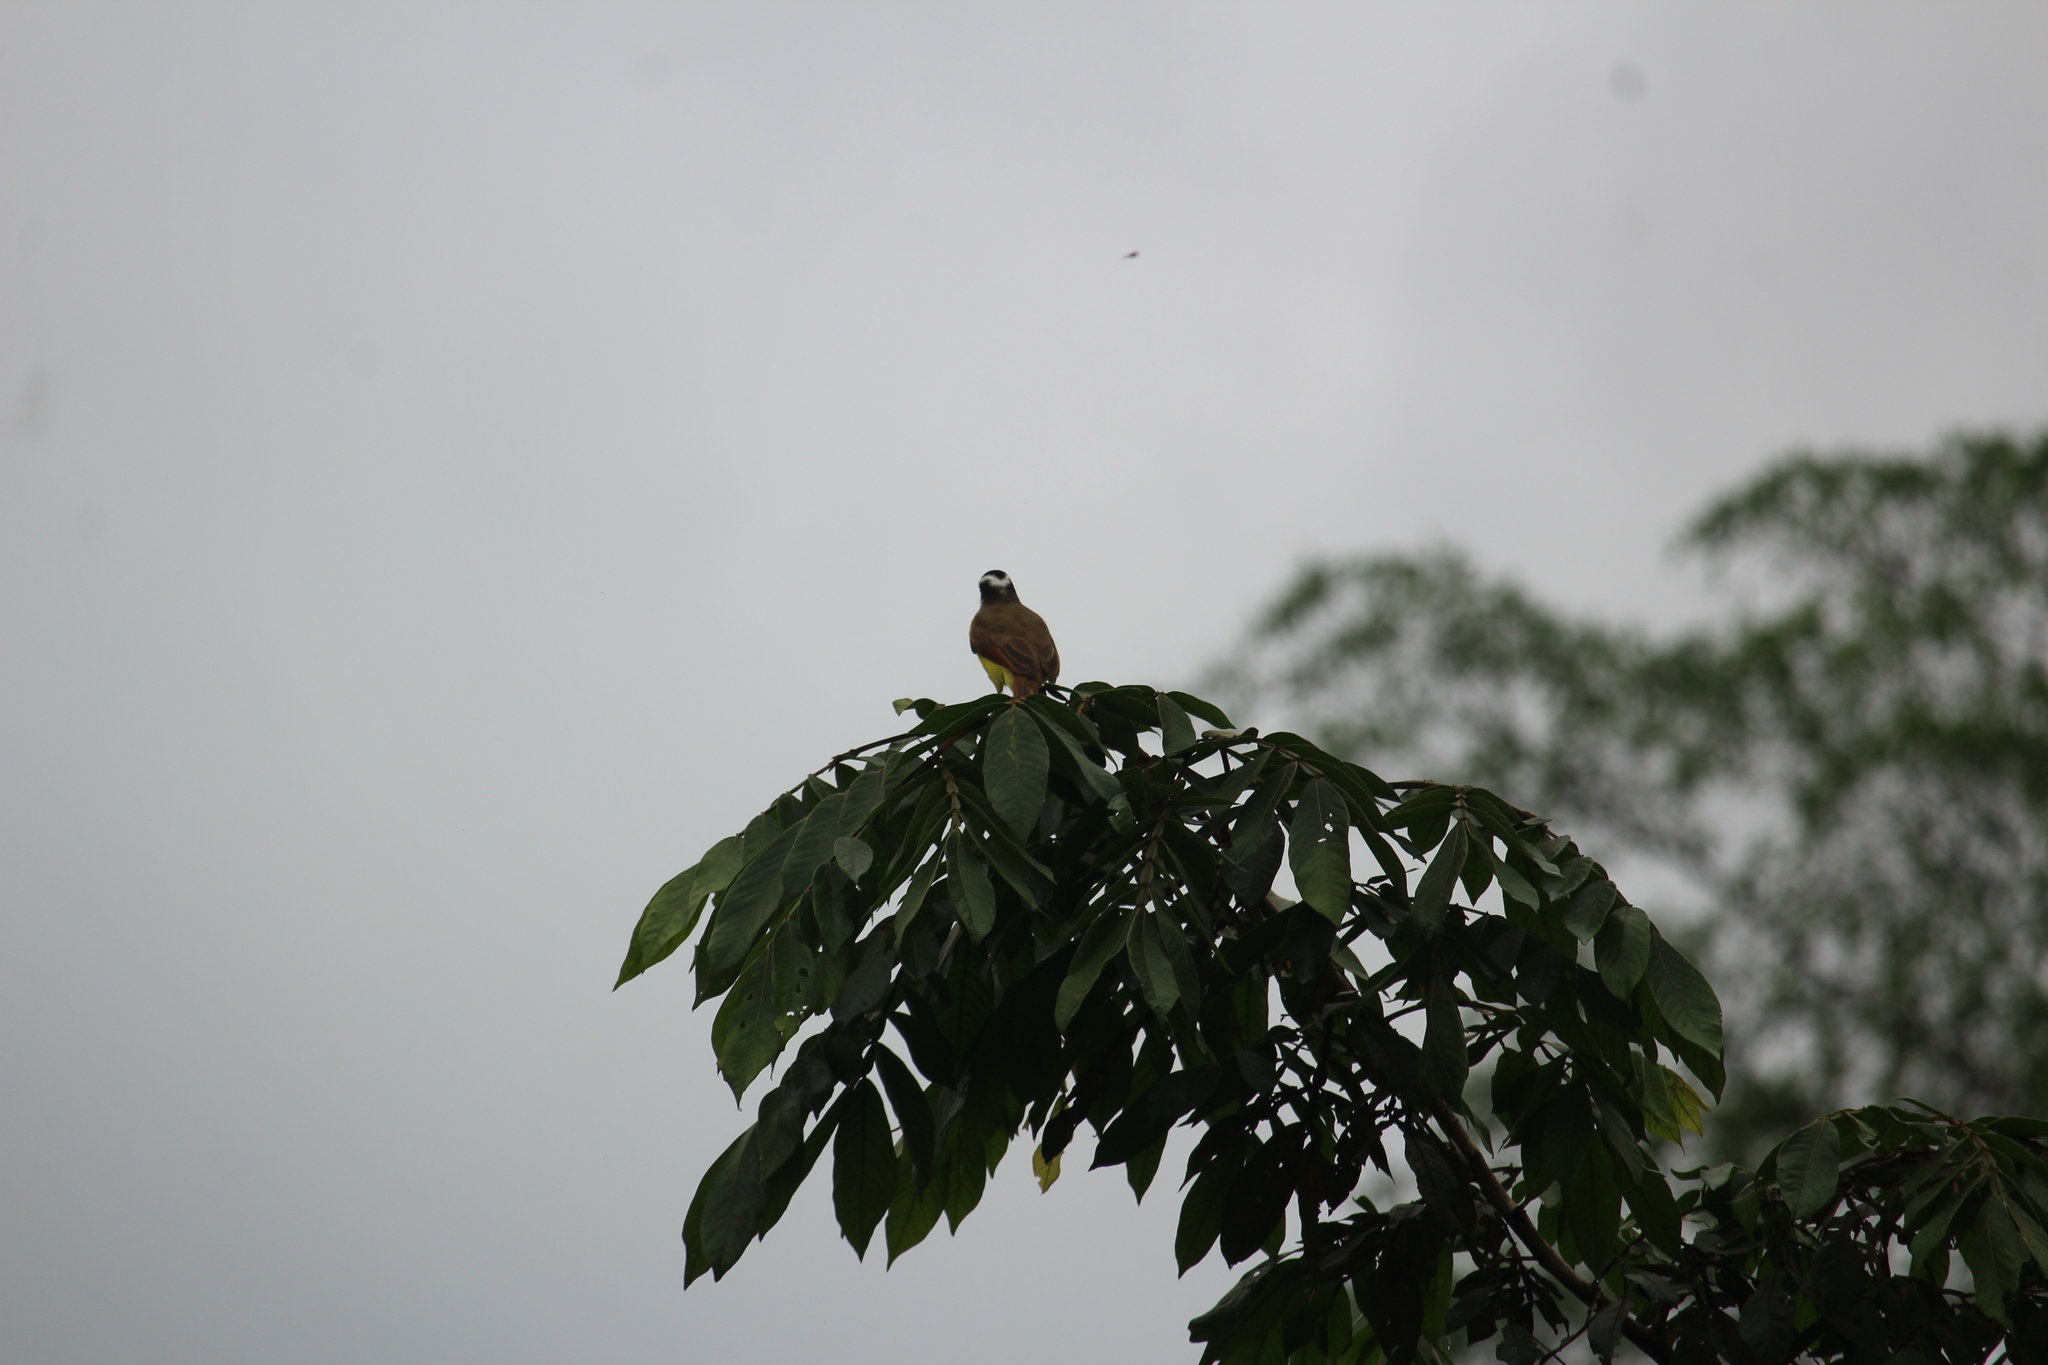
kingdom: Animalia
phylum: Chordata
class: Aves
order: Passeriformes
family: Tyrannidae
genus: Pitangus
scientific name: Pitangus sulphuratus
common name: Great kiskadee
